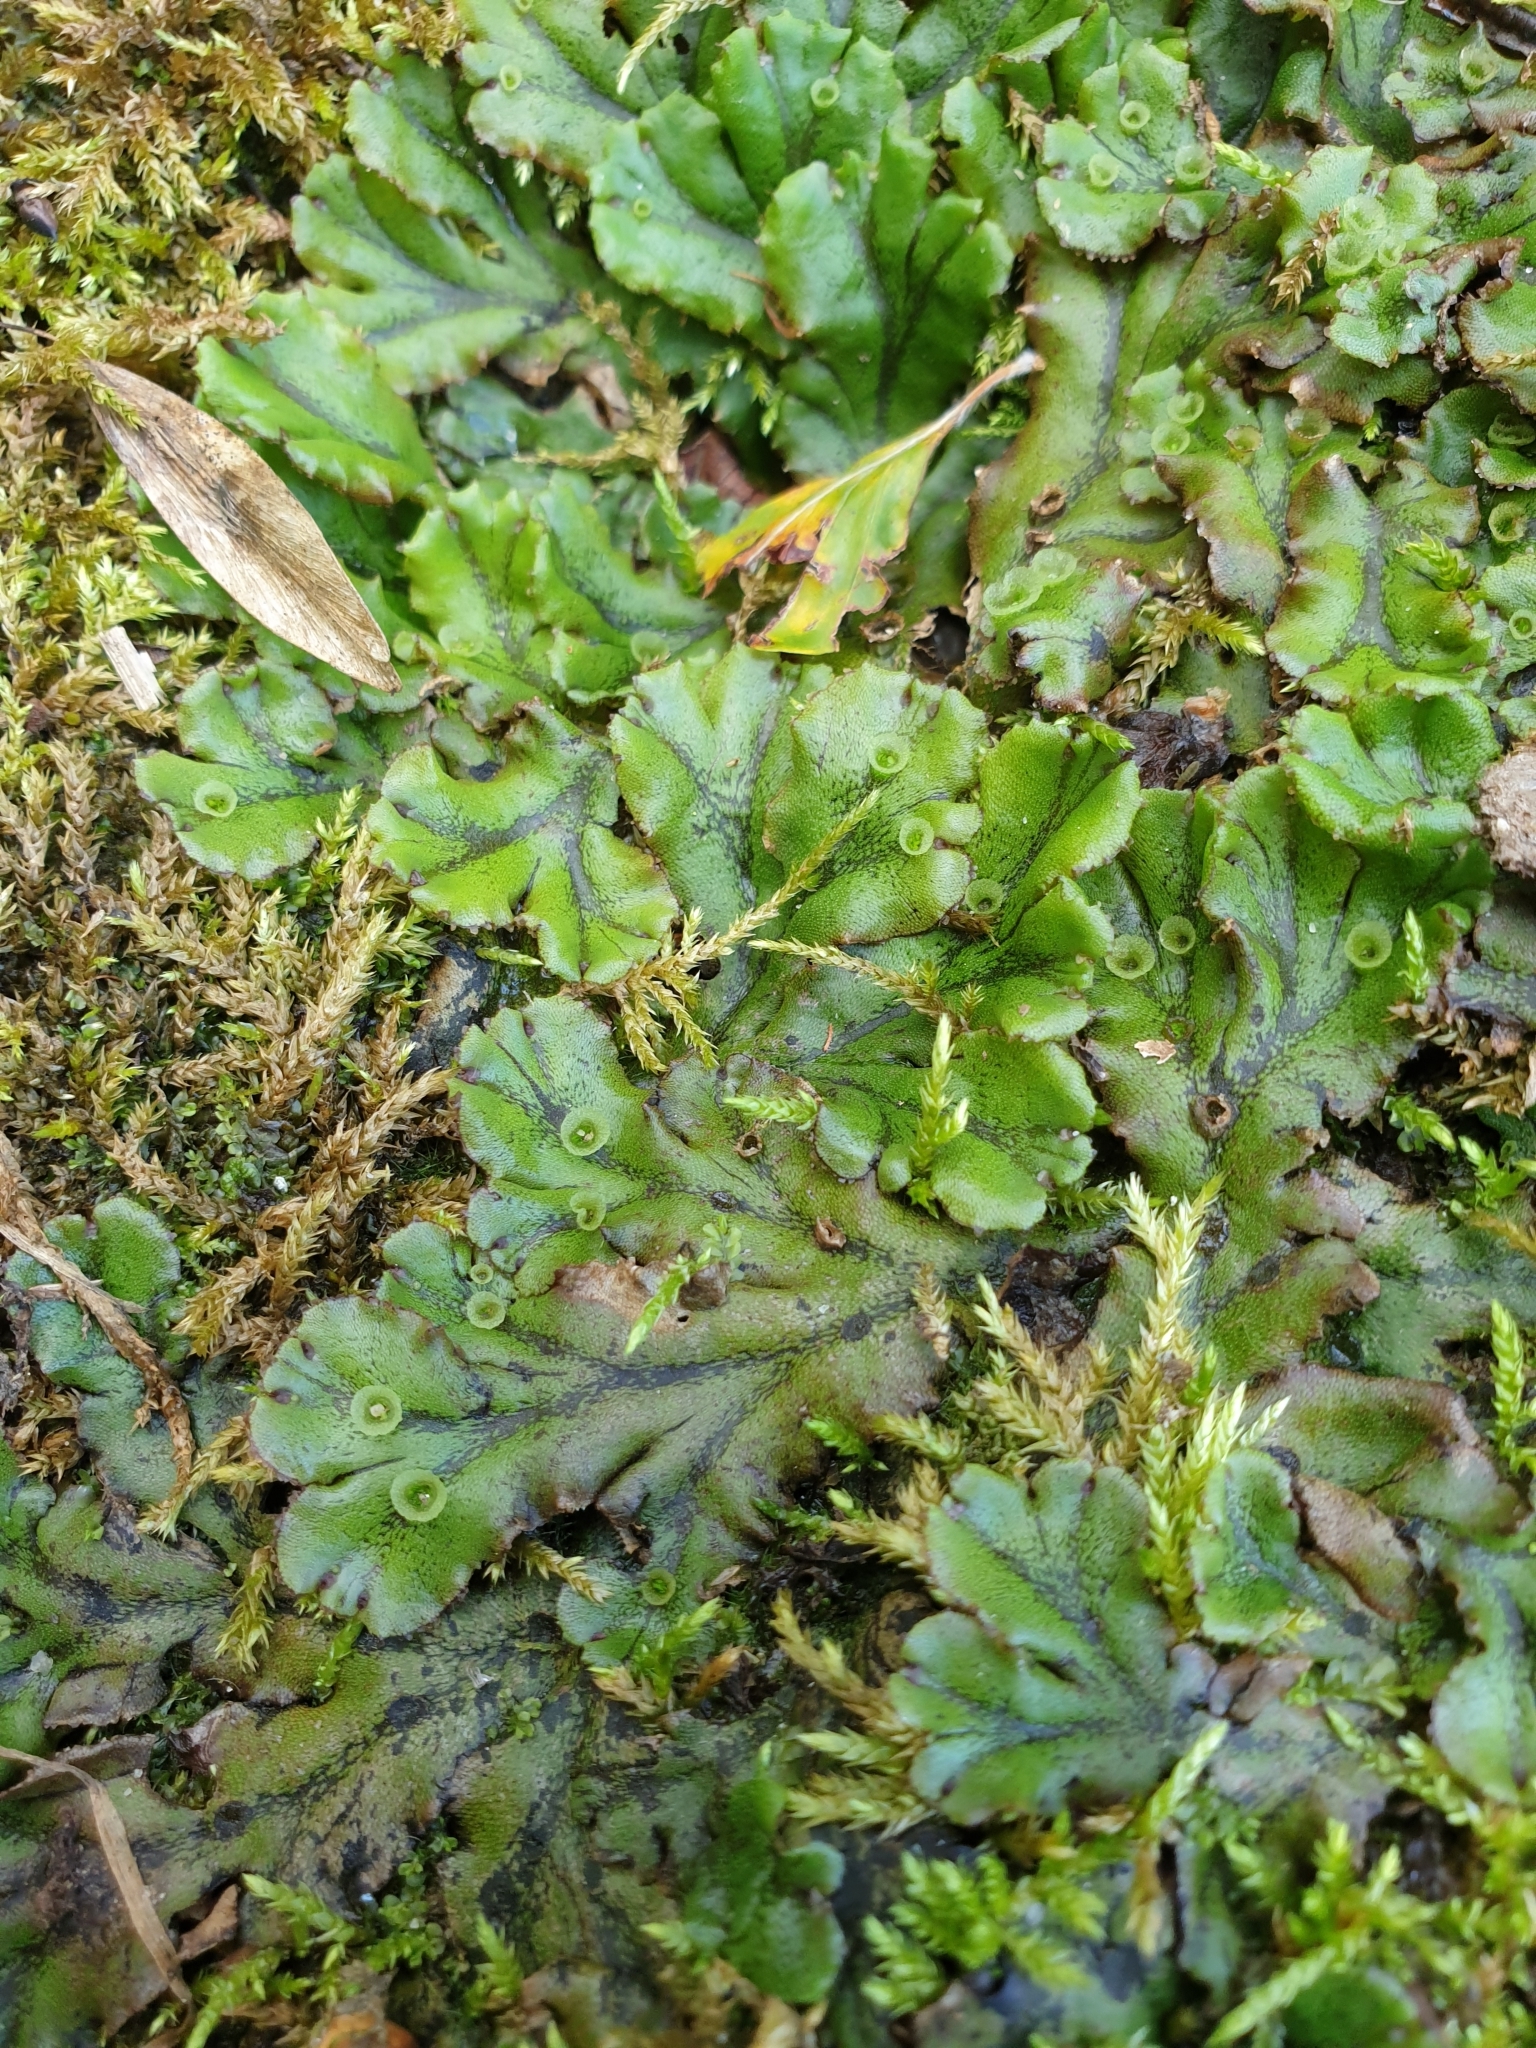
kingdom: Plantae
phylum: Marchantiophyta
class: Marchantiopsida
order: Marchantiales
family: Marchantiaceae
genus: Marchantia
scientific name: Marchantia polymorpha
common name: Common liverwort
